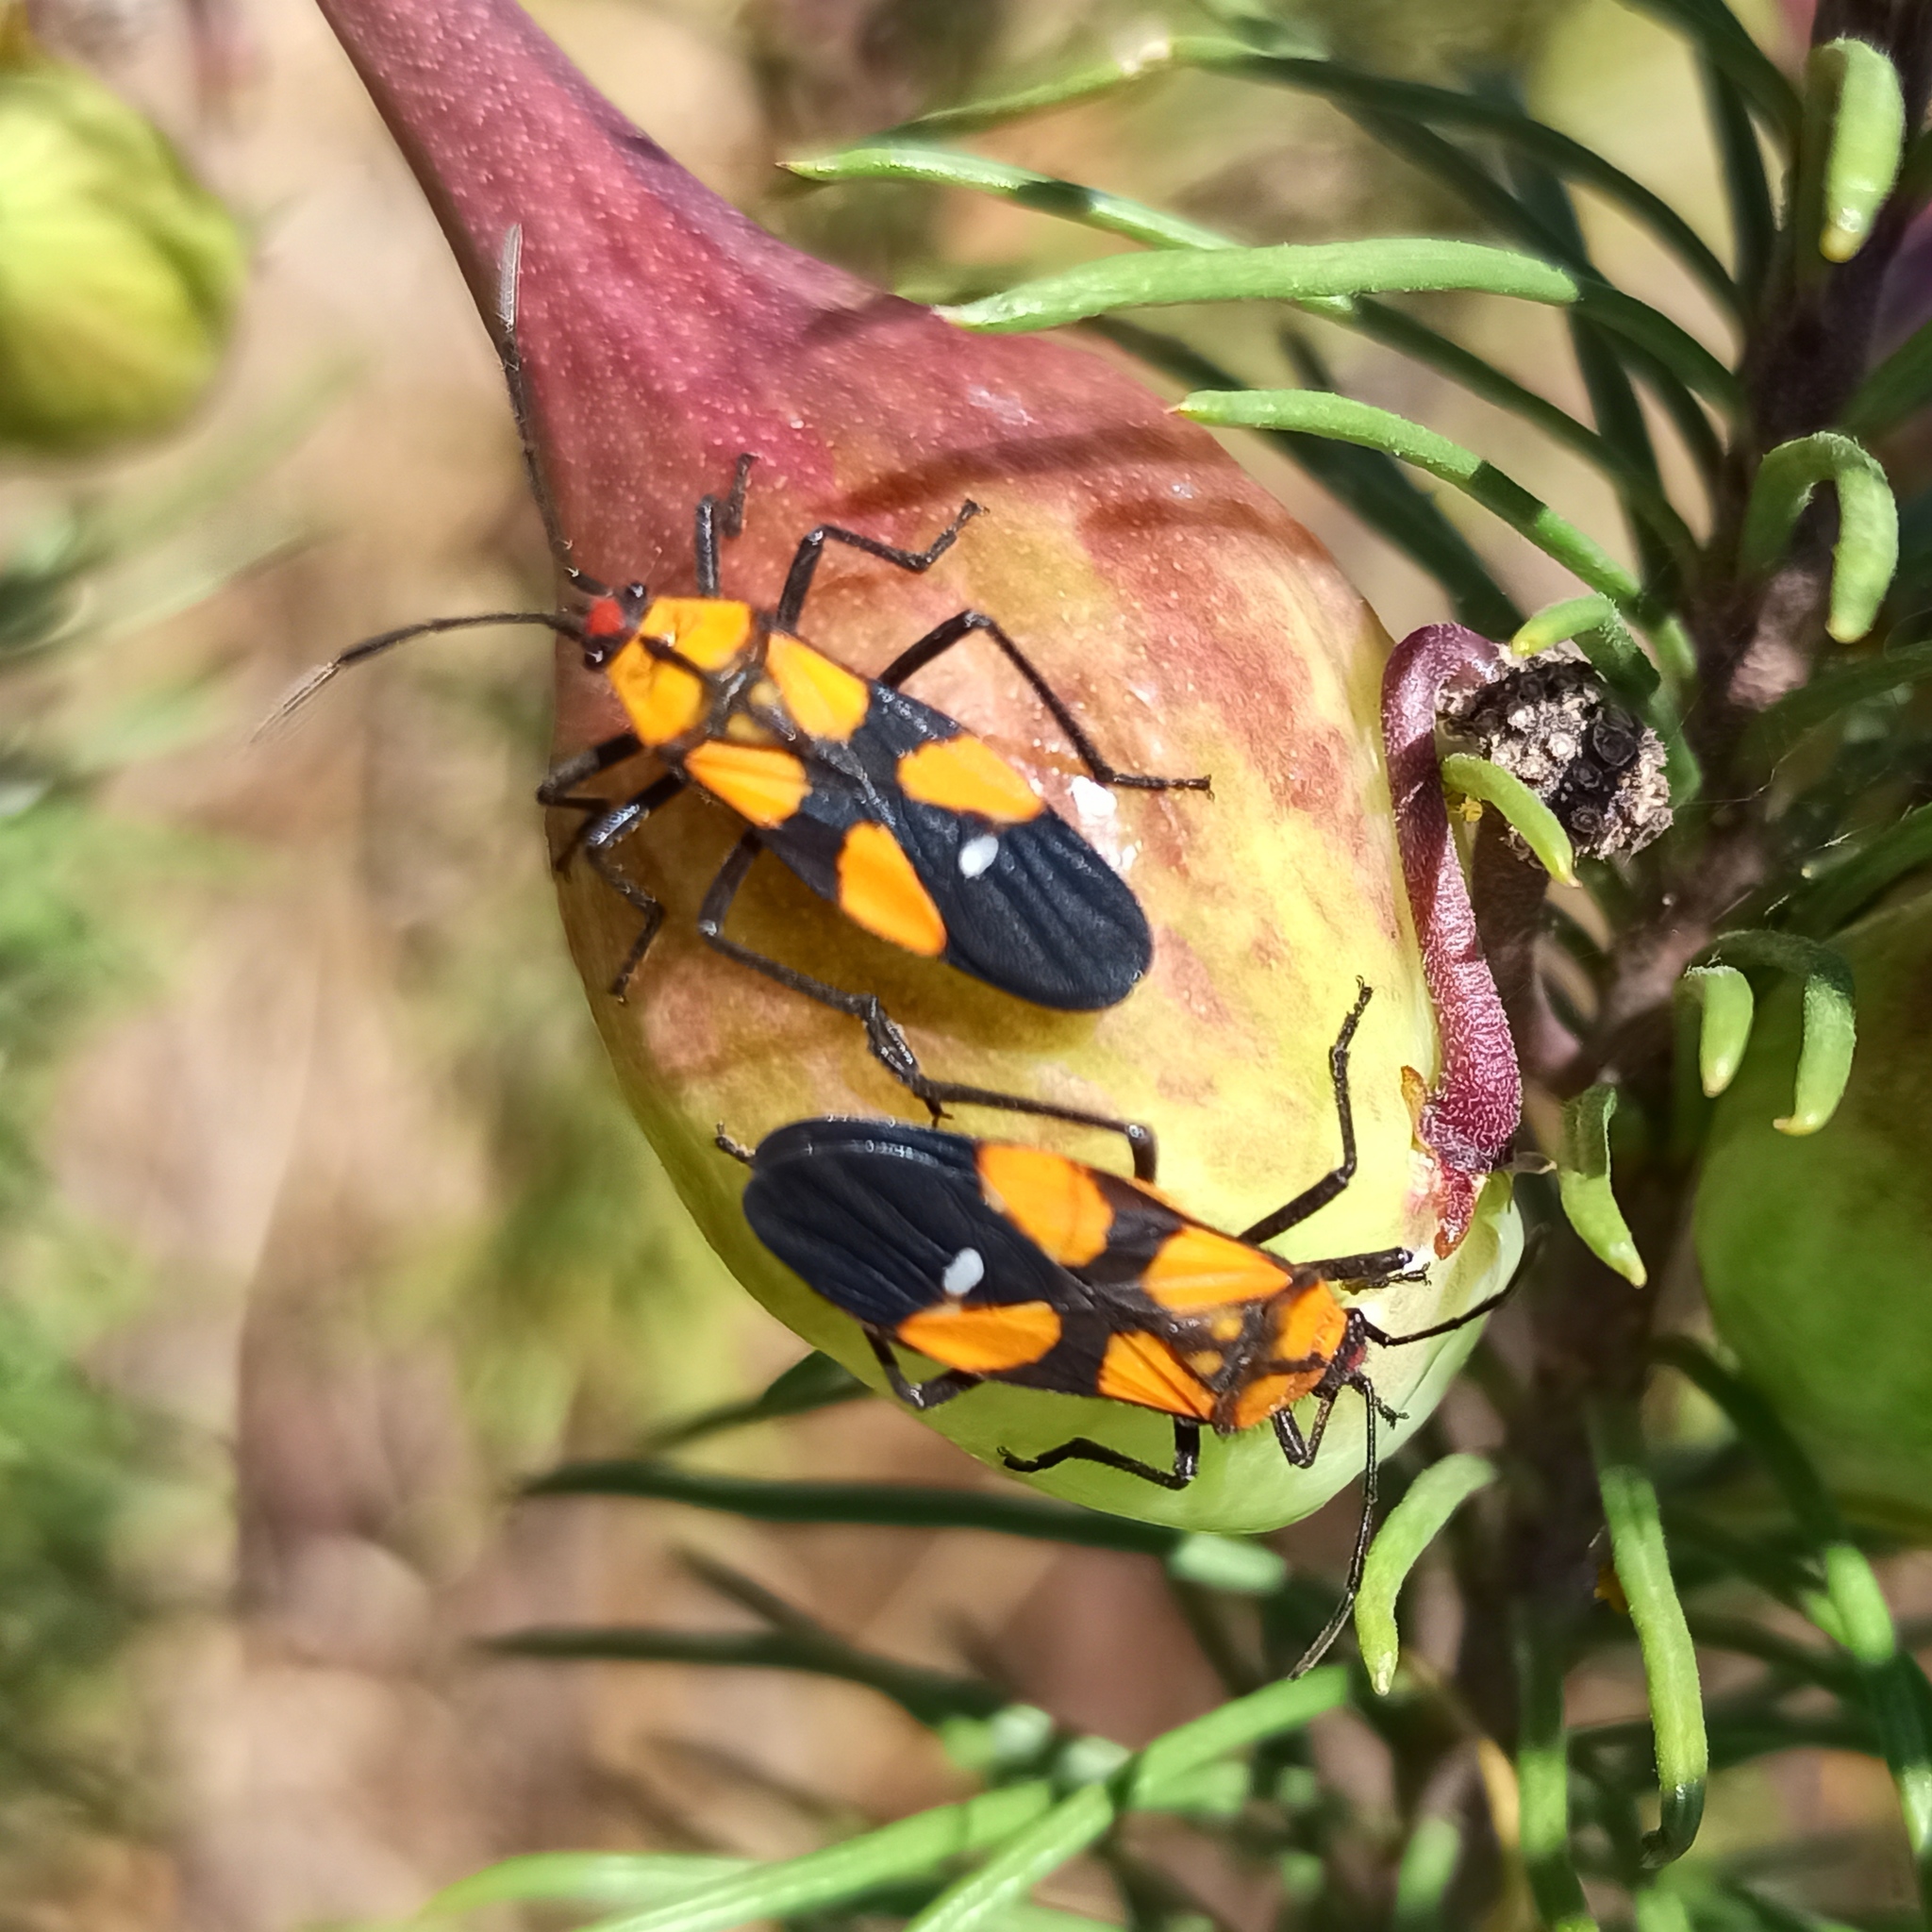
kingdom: Animalia
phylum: Arthropoda
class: Insecta
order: Hemiptera
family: Lygaeidae
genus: Oncopeltus
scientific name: Oncopeltus spectabilis
